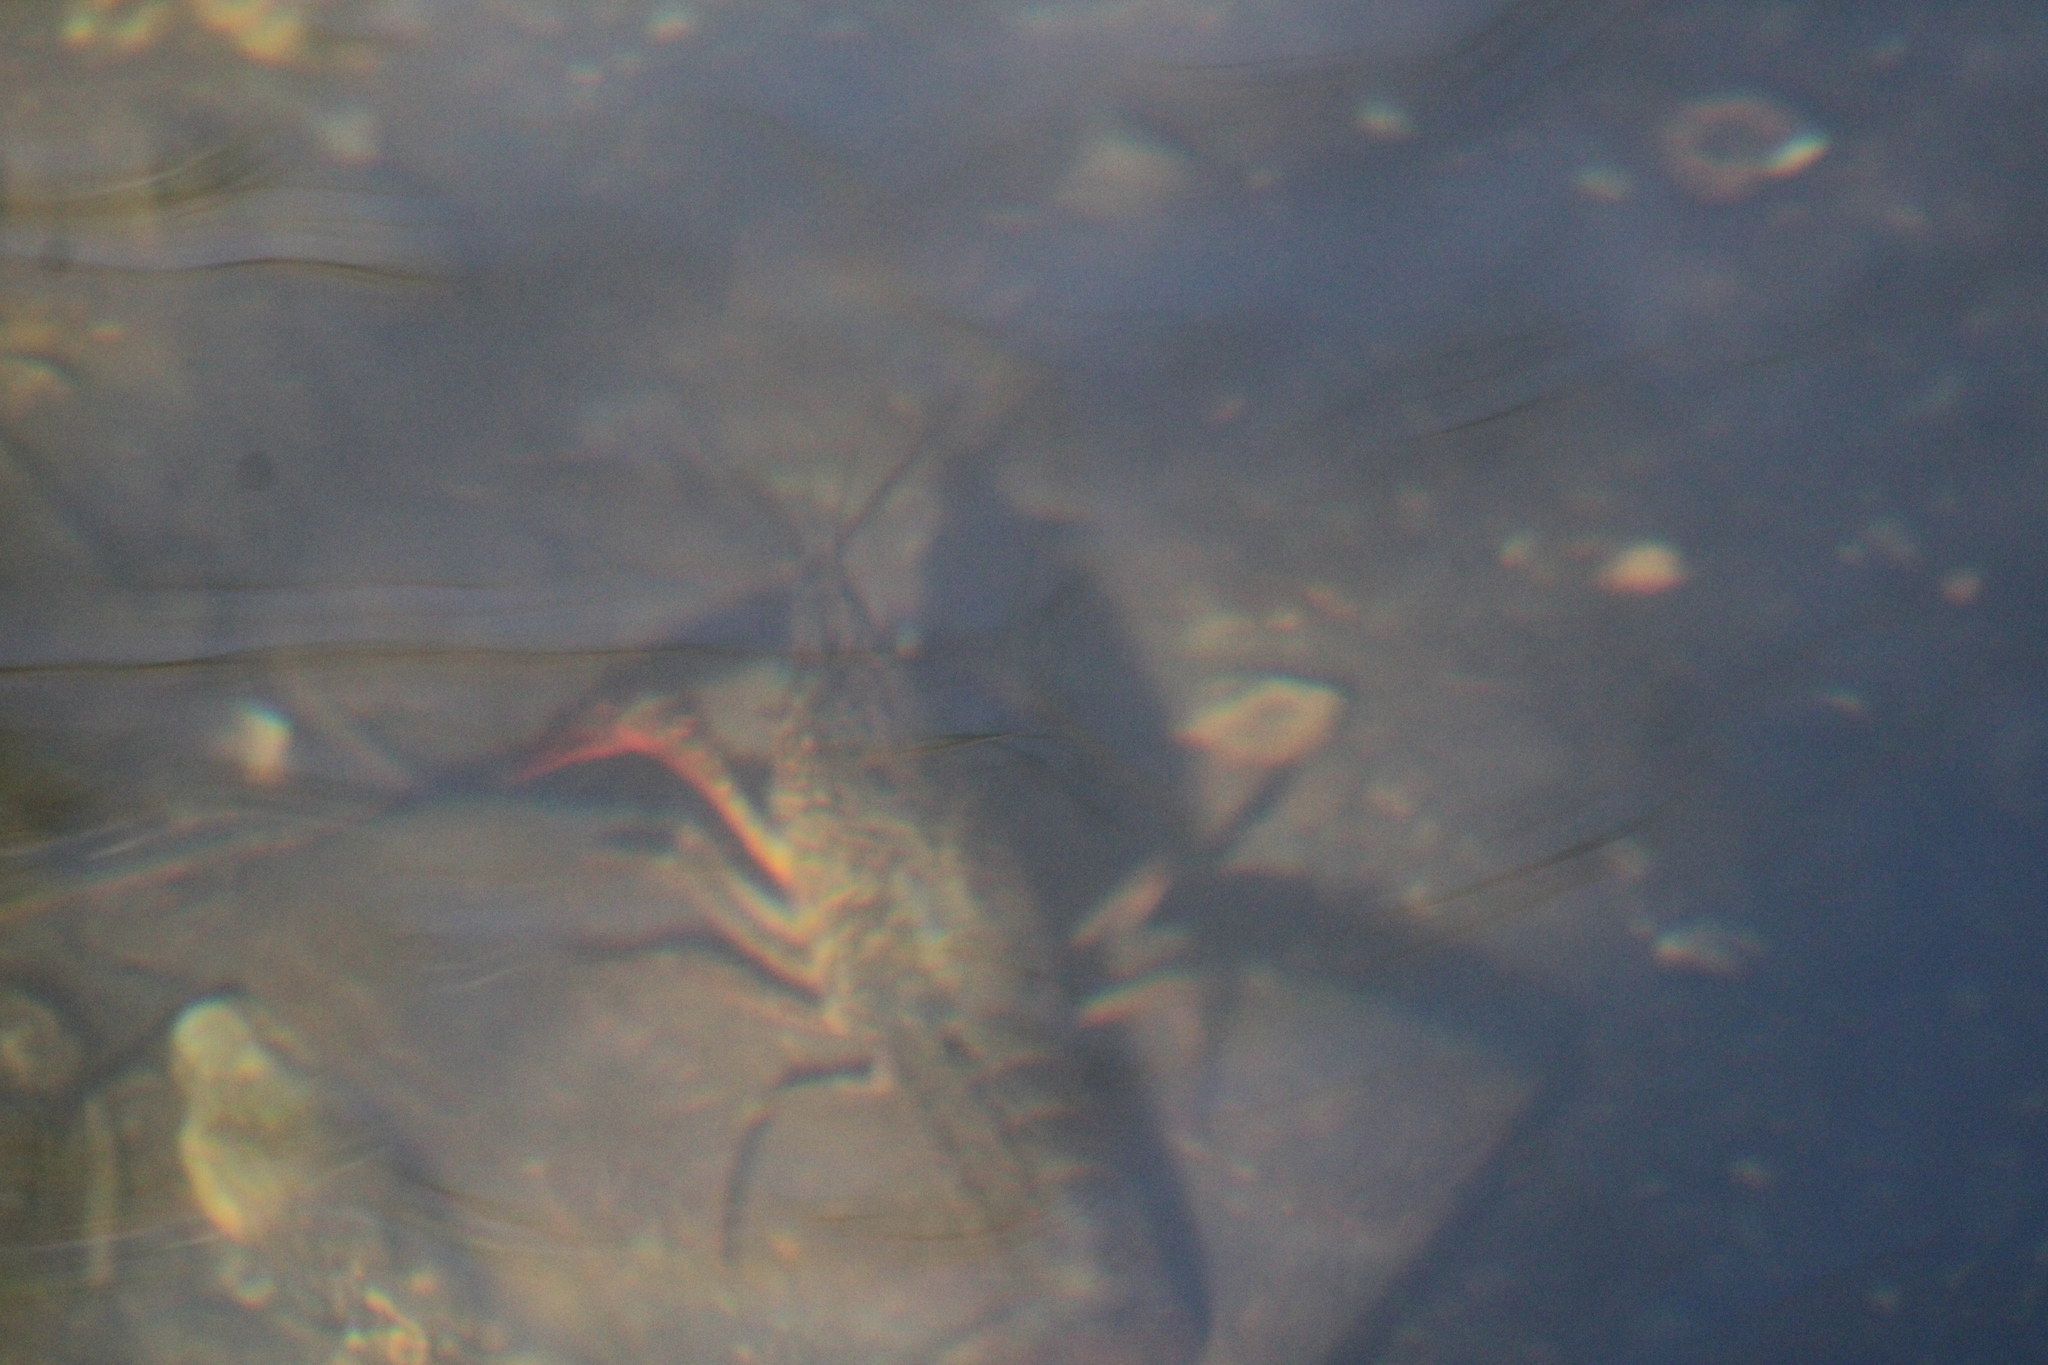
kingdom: Animalia
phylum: Arthropoda
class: Malacostraca
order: Decapoda
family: Cambaridae
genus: Procambarus
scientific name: Procambarus clarkii
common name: Red swamp crayfish
